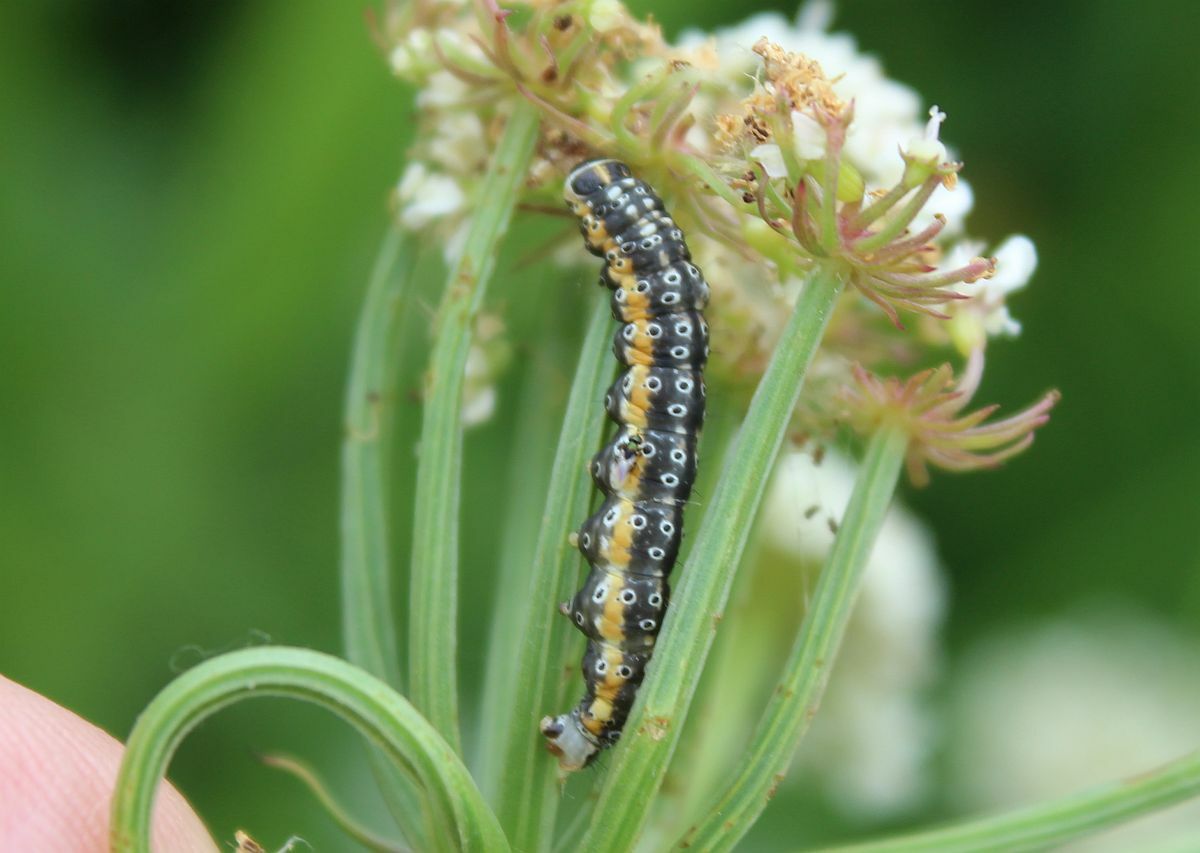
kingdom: Animalia
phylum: Arthropoda
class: Insecta
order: Lepidoptera
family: Depressariidae
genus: Depressaria
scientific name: Depressaria apiella
